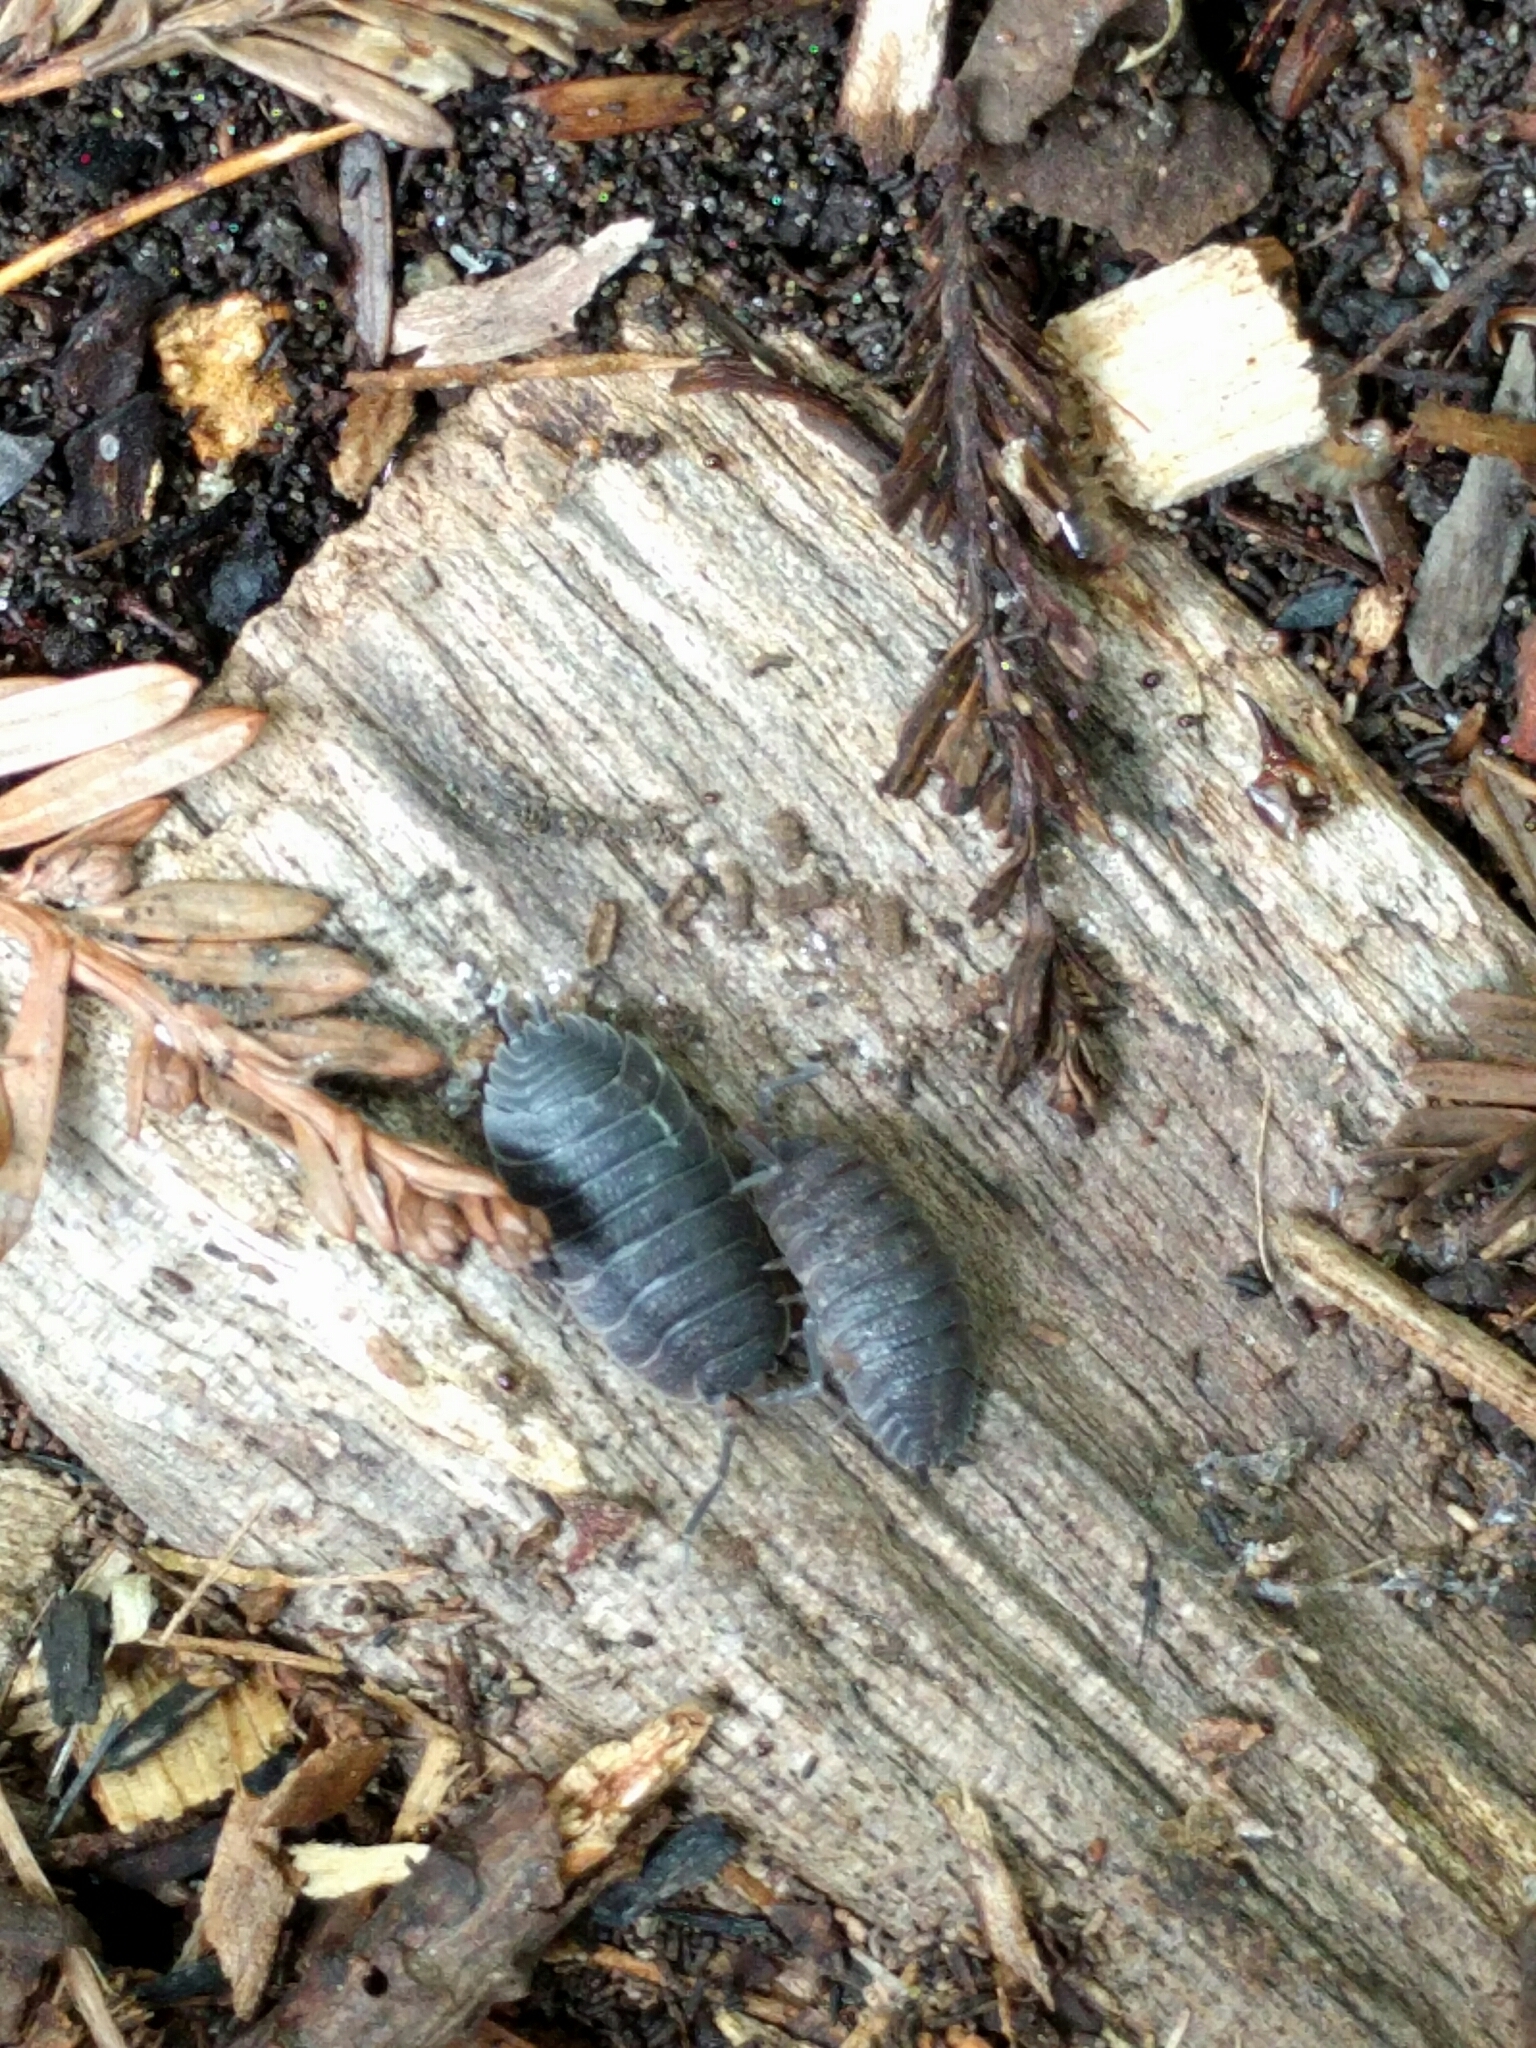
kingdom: Animalia
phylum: Arthropoda
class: Malacostraca
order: Isopoda
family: Porcellionidae
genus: Porcellio
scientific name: Porcellio scaber
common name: Common rough woodlouse
